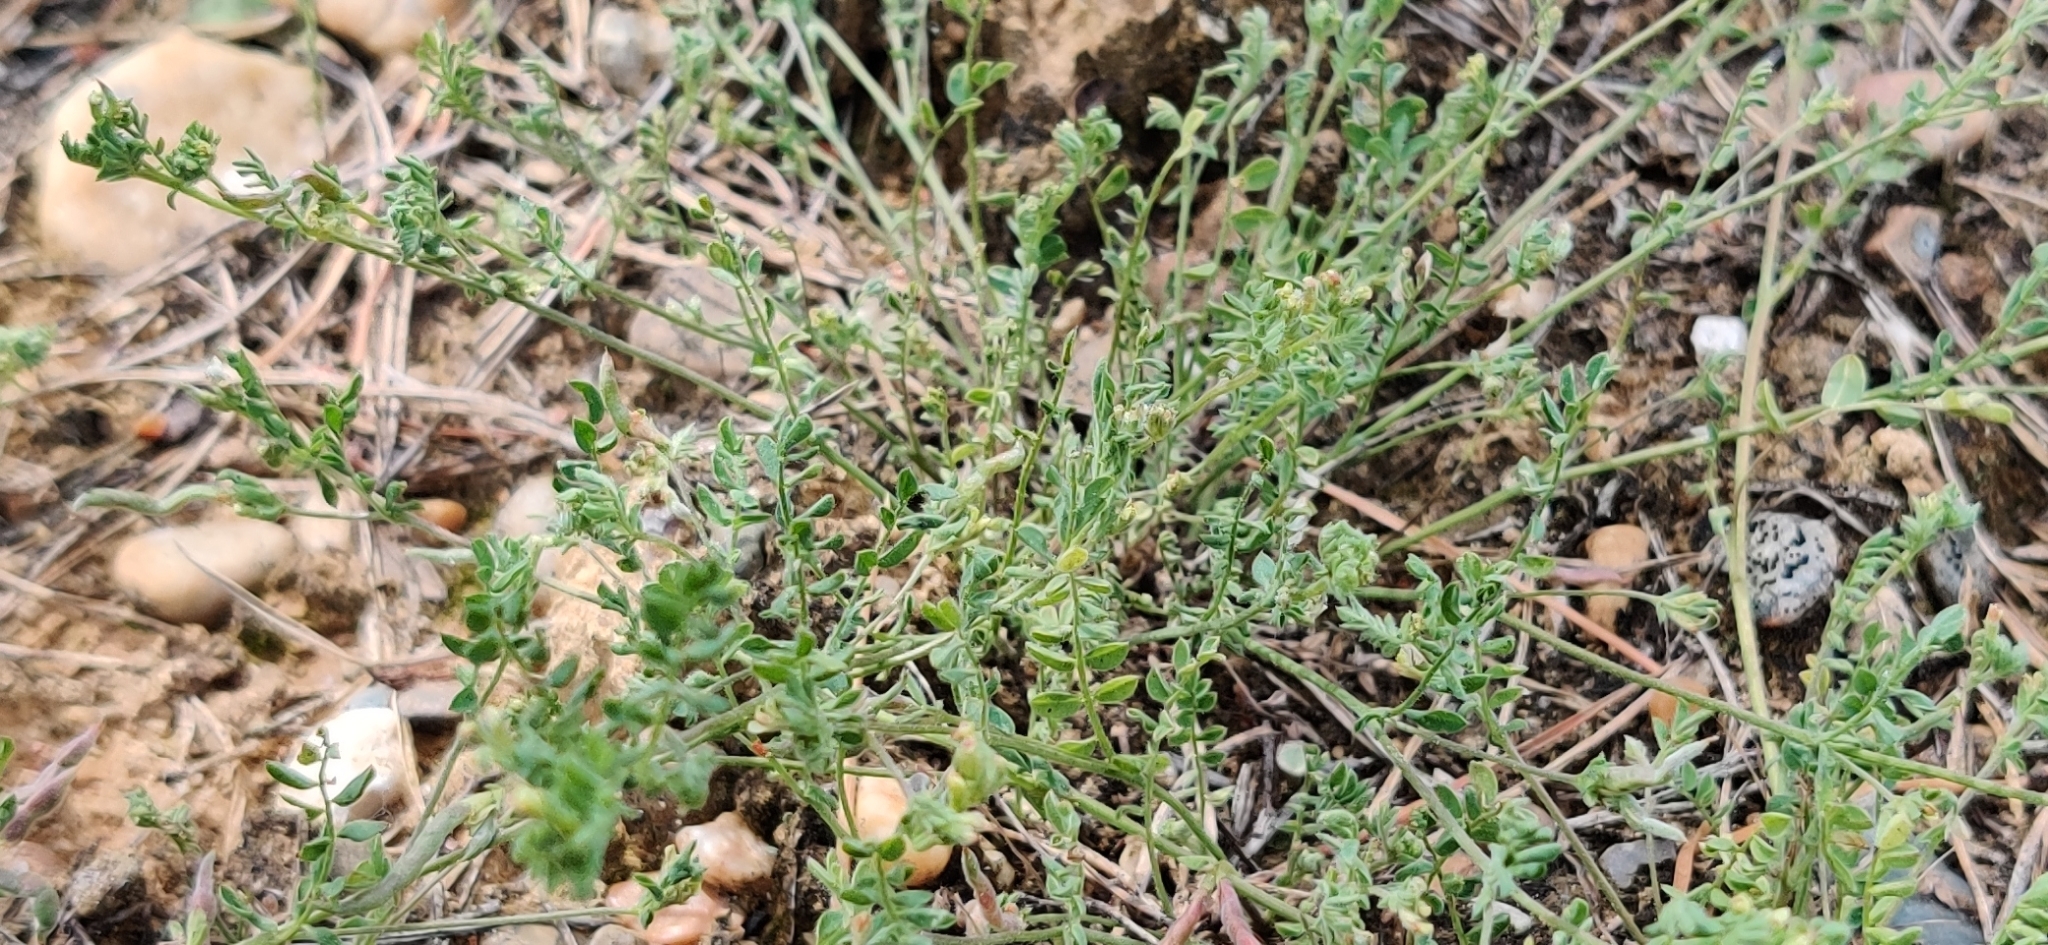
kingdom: Plantae
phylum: Tracheophyta
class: Magnoliopsida
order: Fabales
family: Fabaceae
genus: Ornithopus
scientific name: Ornithopus perpusillus
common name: Bird's-foot
